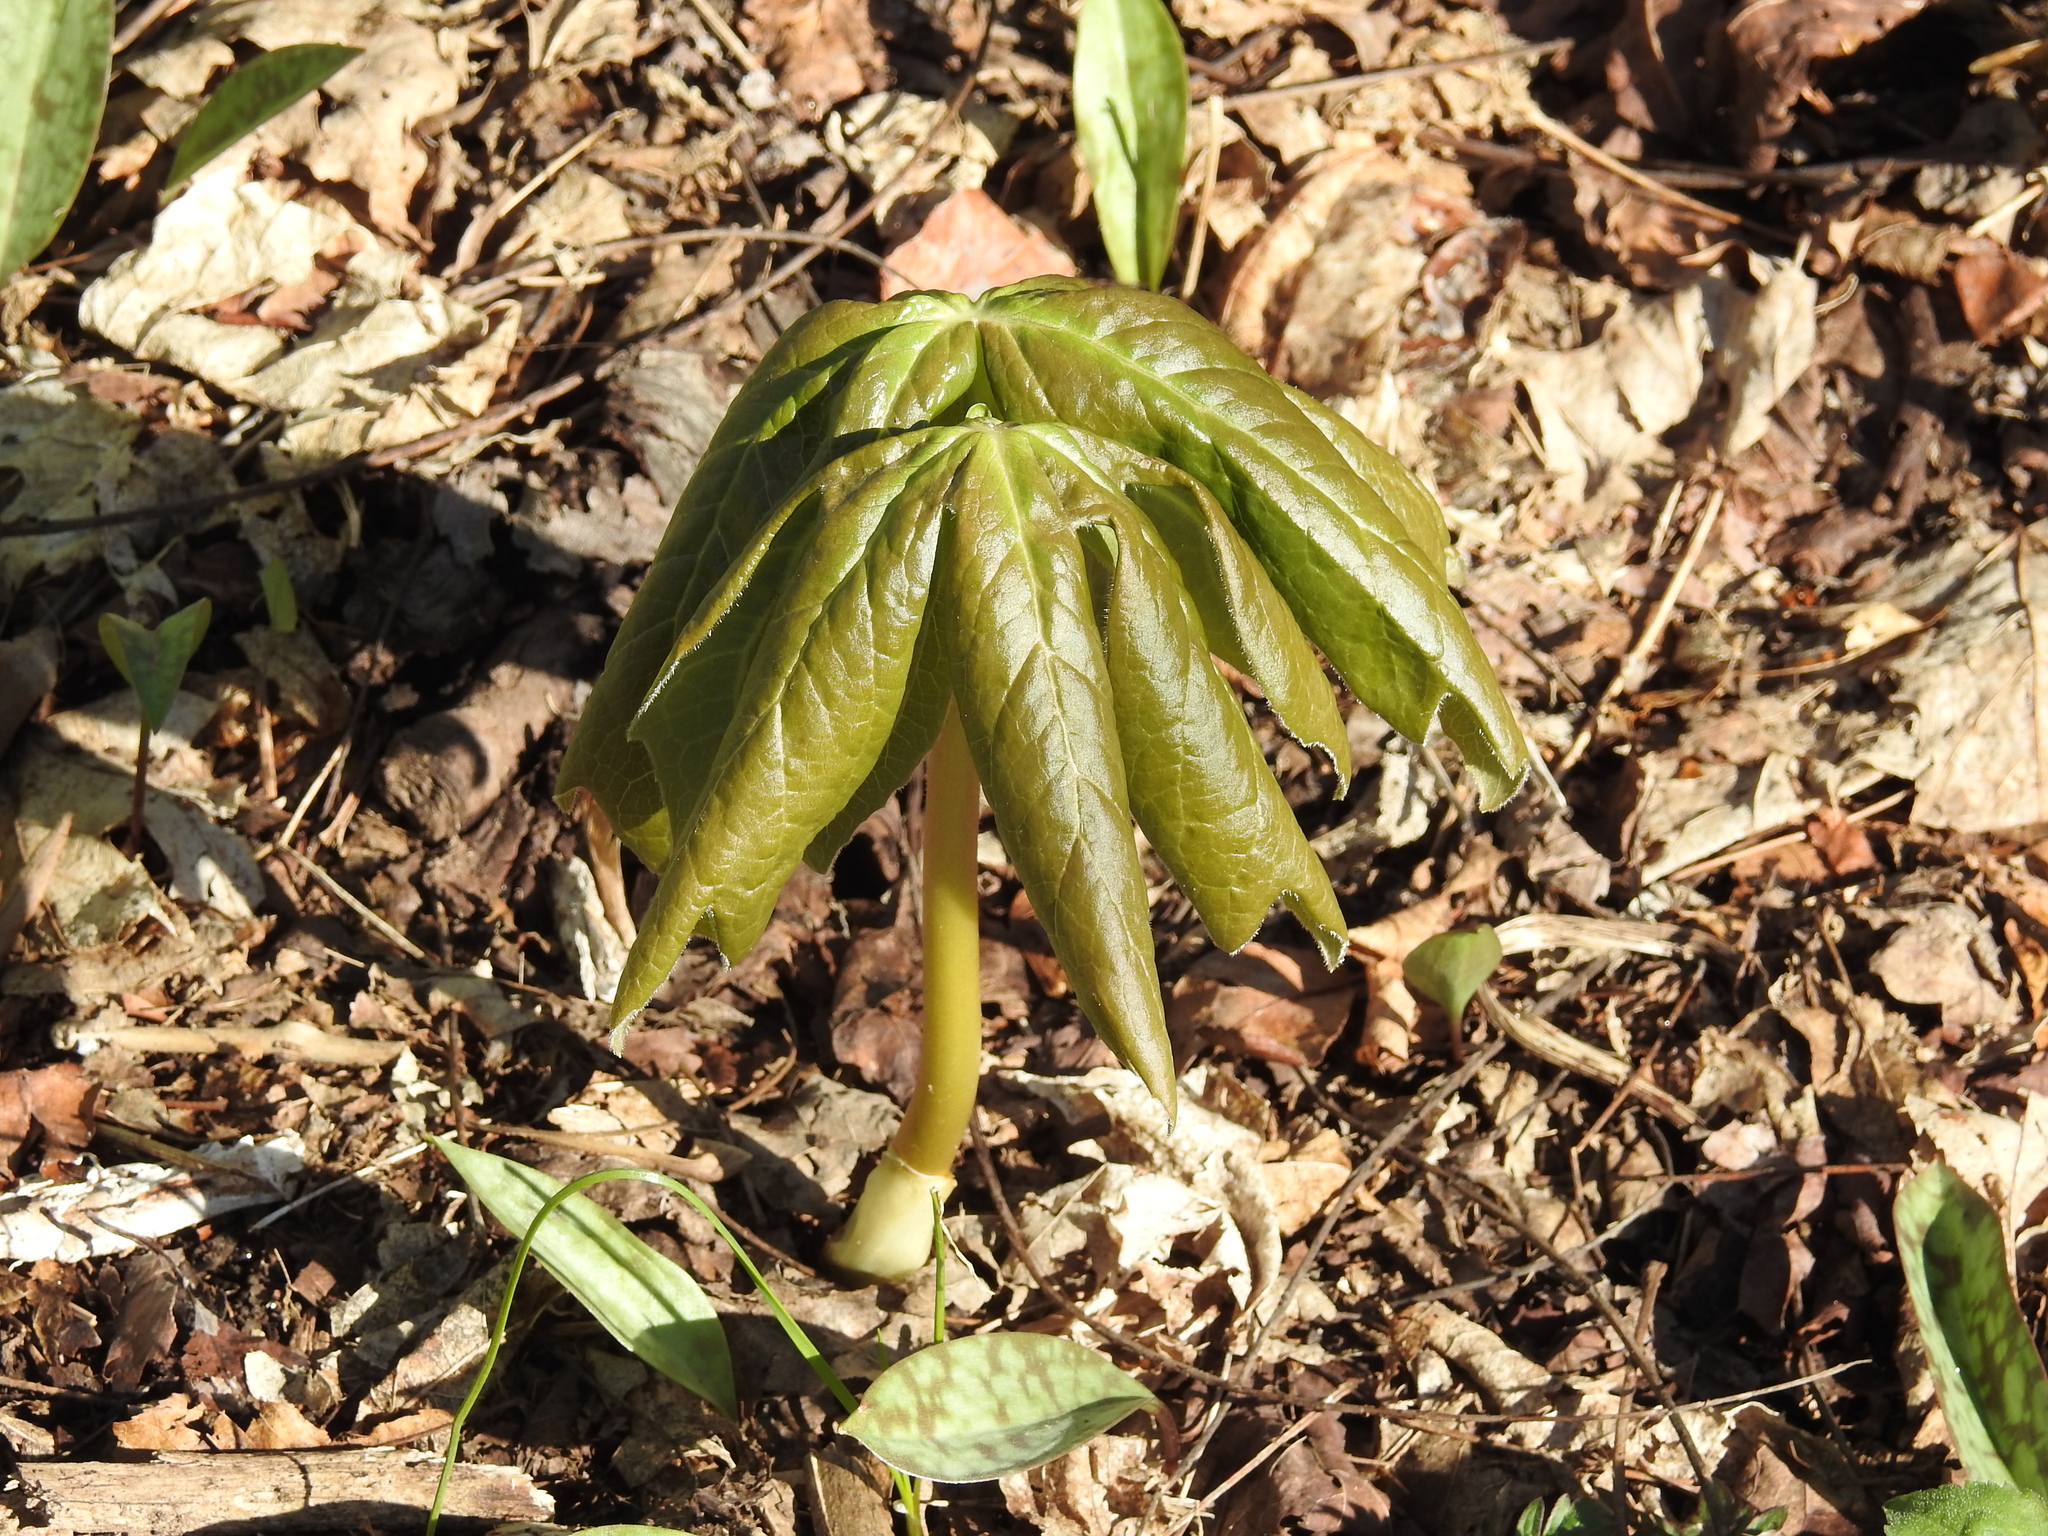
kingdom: Plantae
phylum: Tracheophyta
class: Magnoliopsida
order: Ranunculales
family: Berberidaceae
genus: Podophyllum
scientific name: Podophyllum peltatum
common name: Wild mandrake
